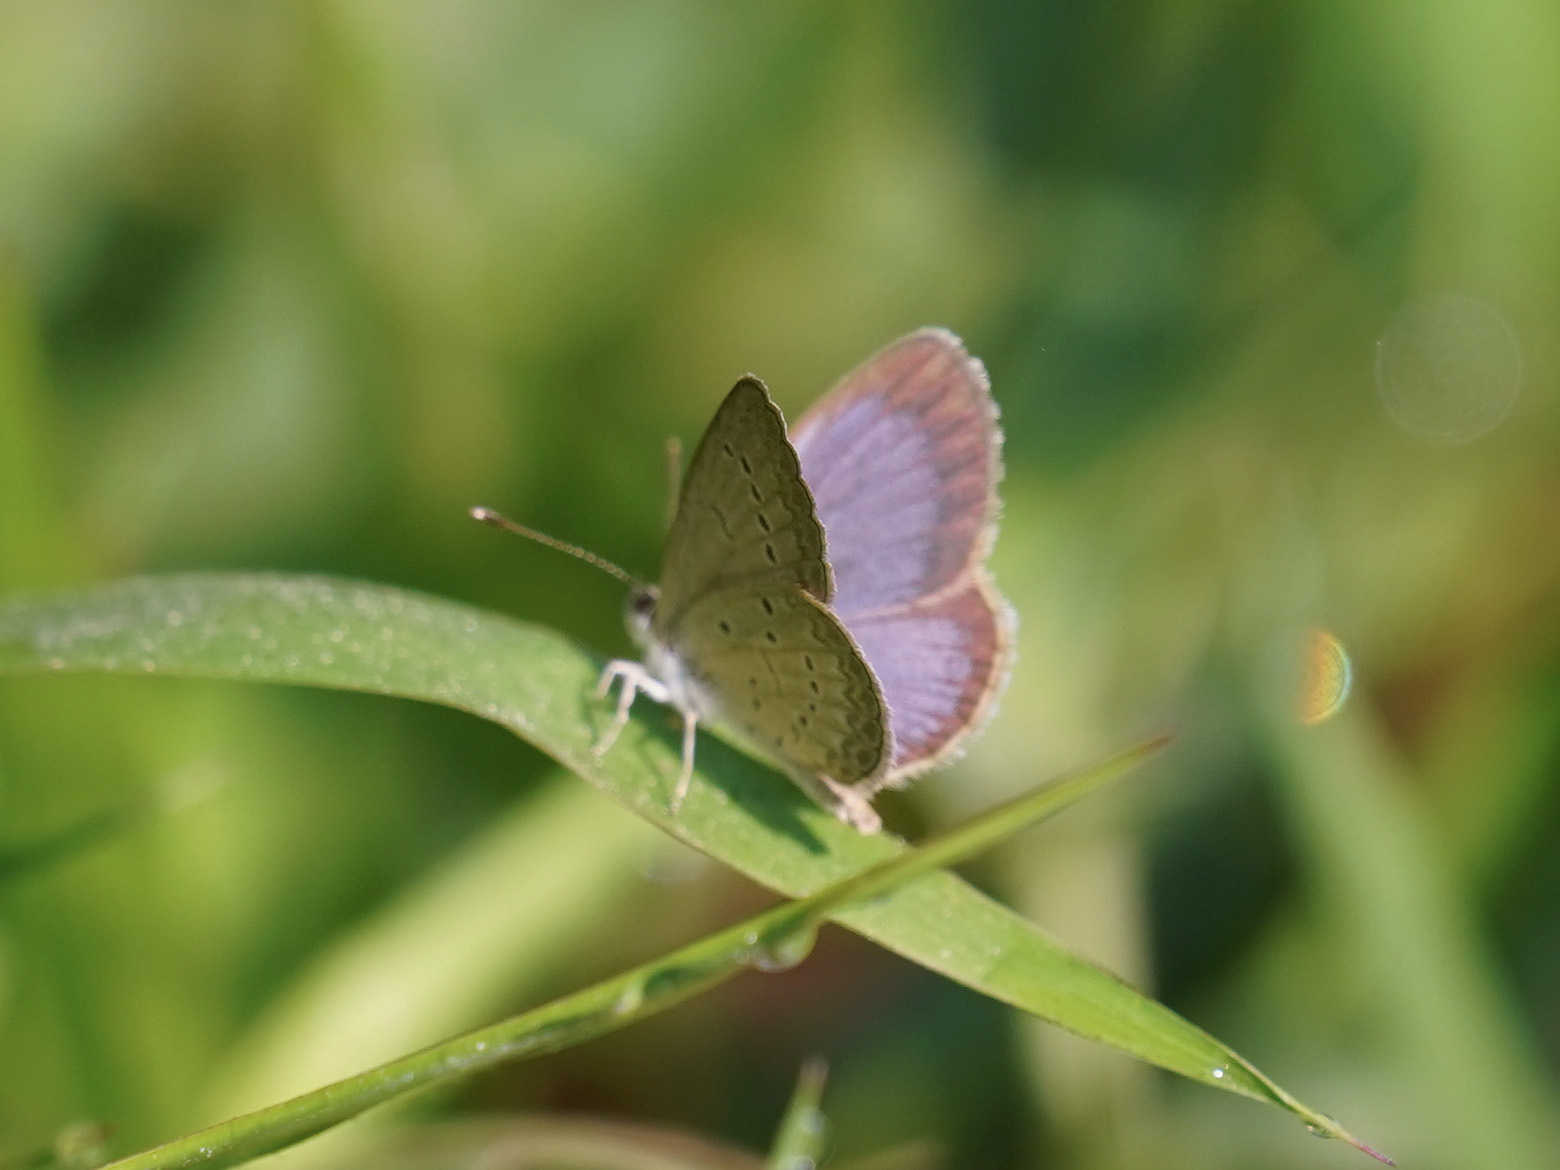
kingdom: Animalia
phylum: Arthropoda
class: Insecta
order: Lepidoptera
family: Lycaenidae
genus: Zizina
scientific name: Zizina otis
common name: Lesser grass blue
